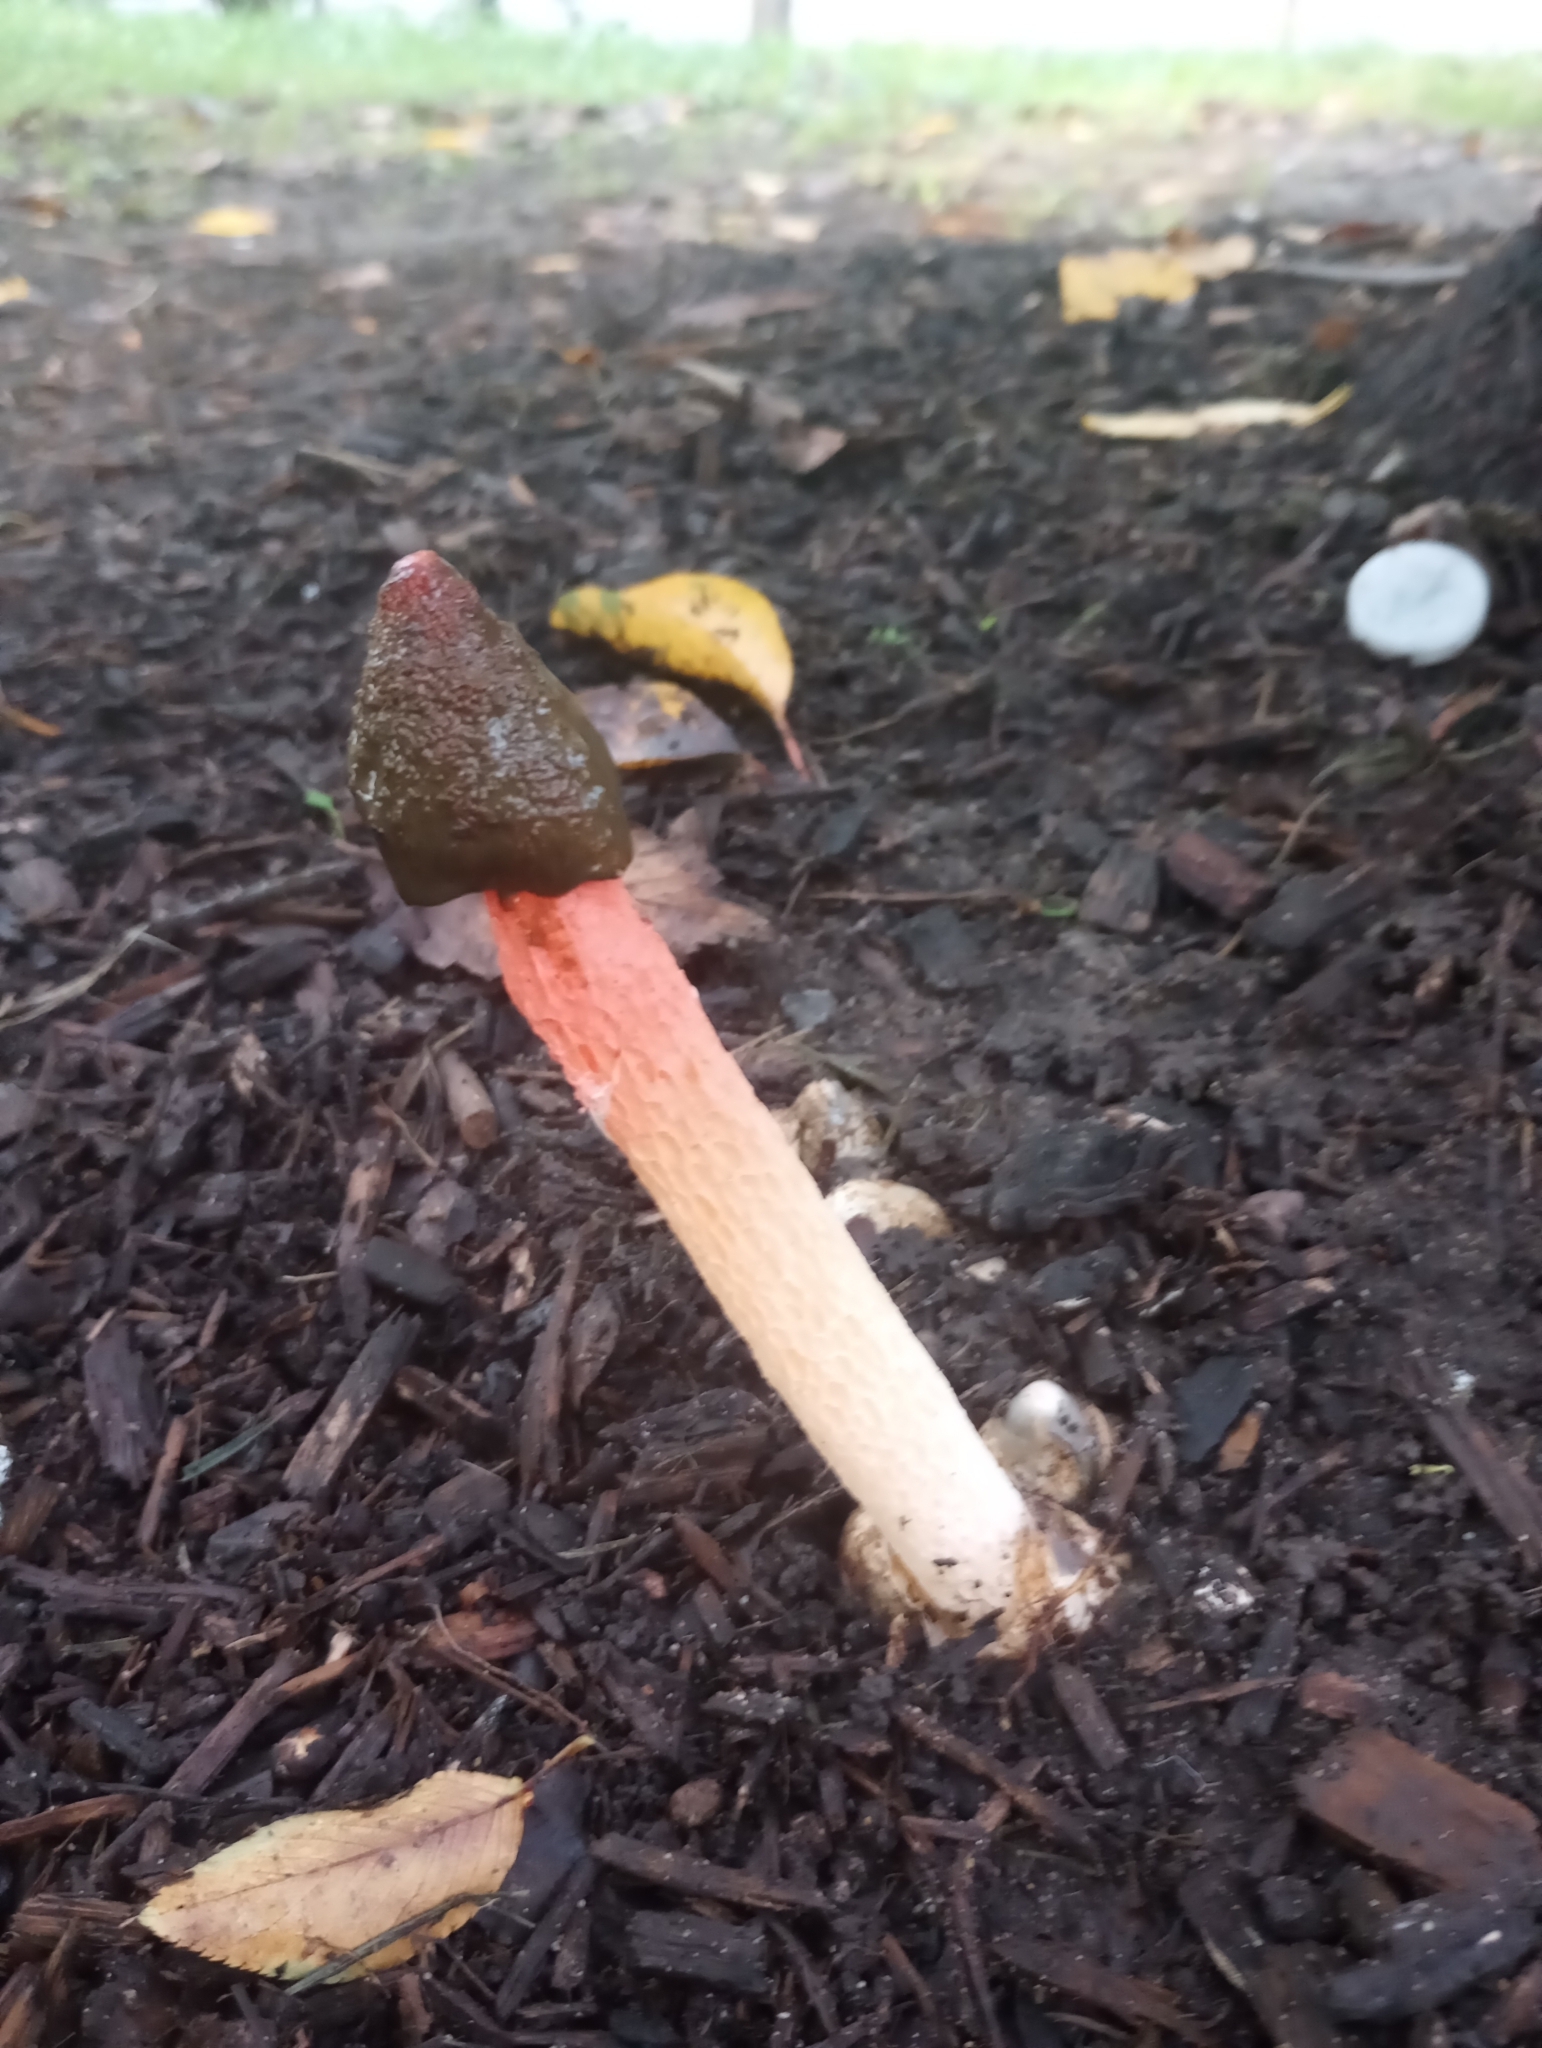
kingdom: Fungi
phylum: Basidiomycota
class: Agaricomycetes
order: Phallales
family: Phallaceae
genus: Phallus
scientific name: Phallus rugulosus
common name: Wrinkly stinkhorn
